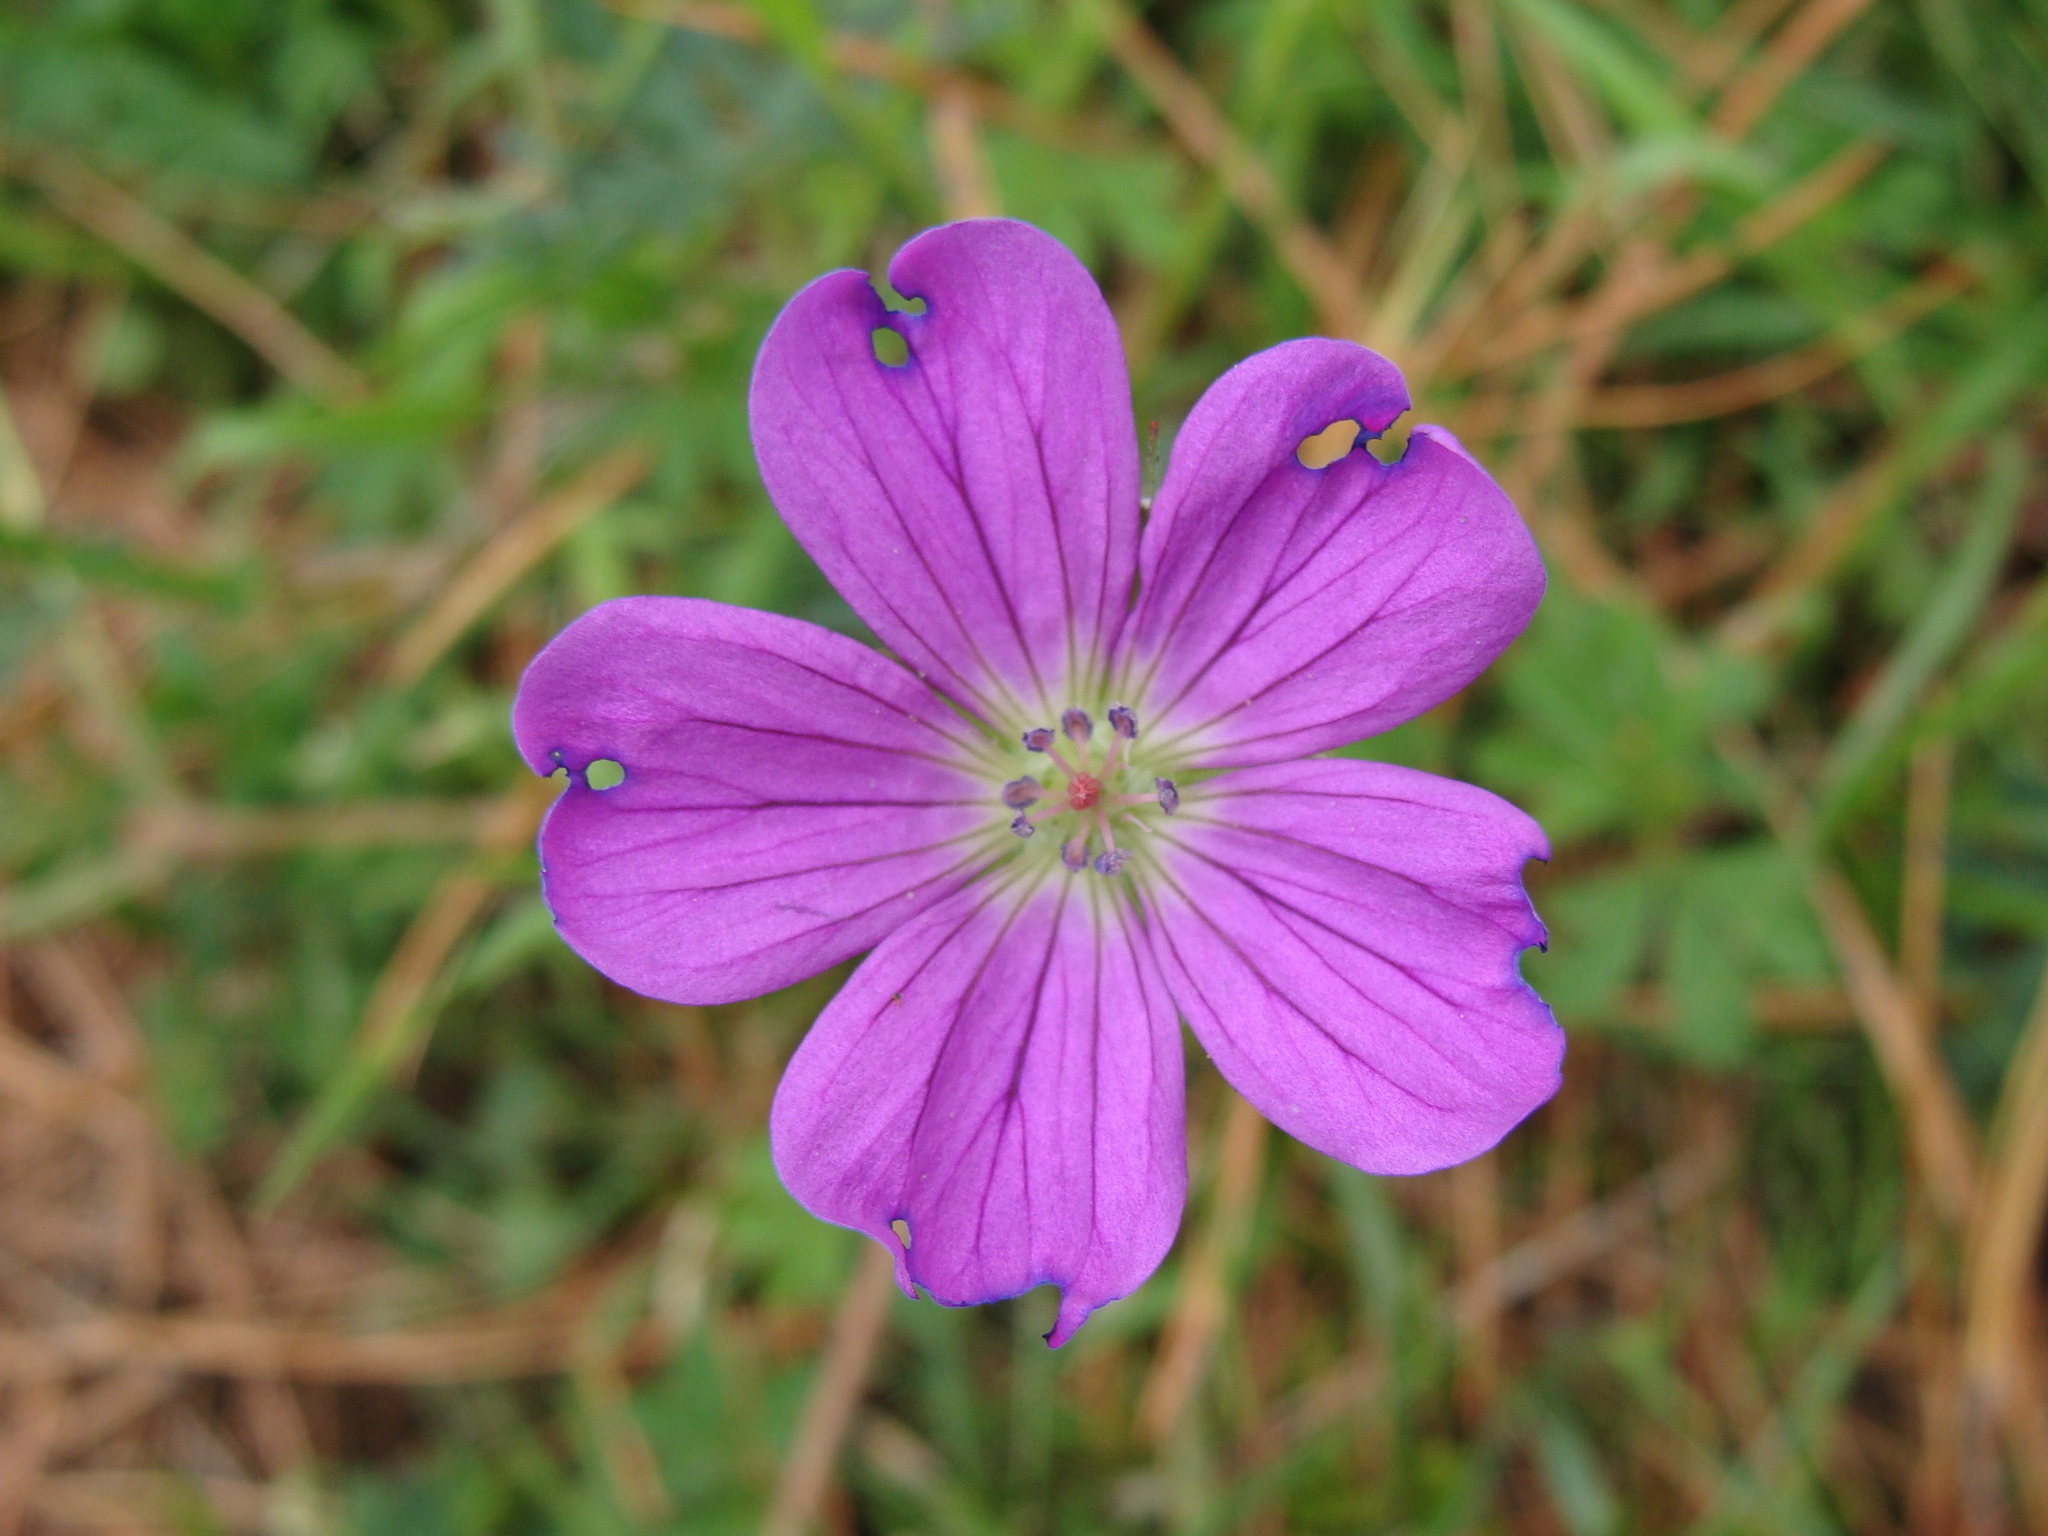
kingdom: Plantae
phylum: Tracheophyta
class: Magnoliopsida
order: Geraniales
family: Geraniaceae
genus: Geranium
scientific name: Geranium potentillifolium
